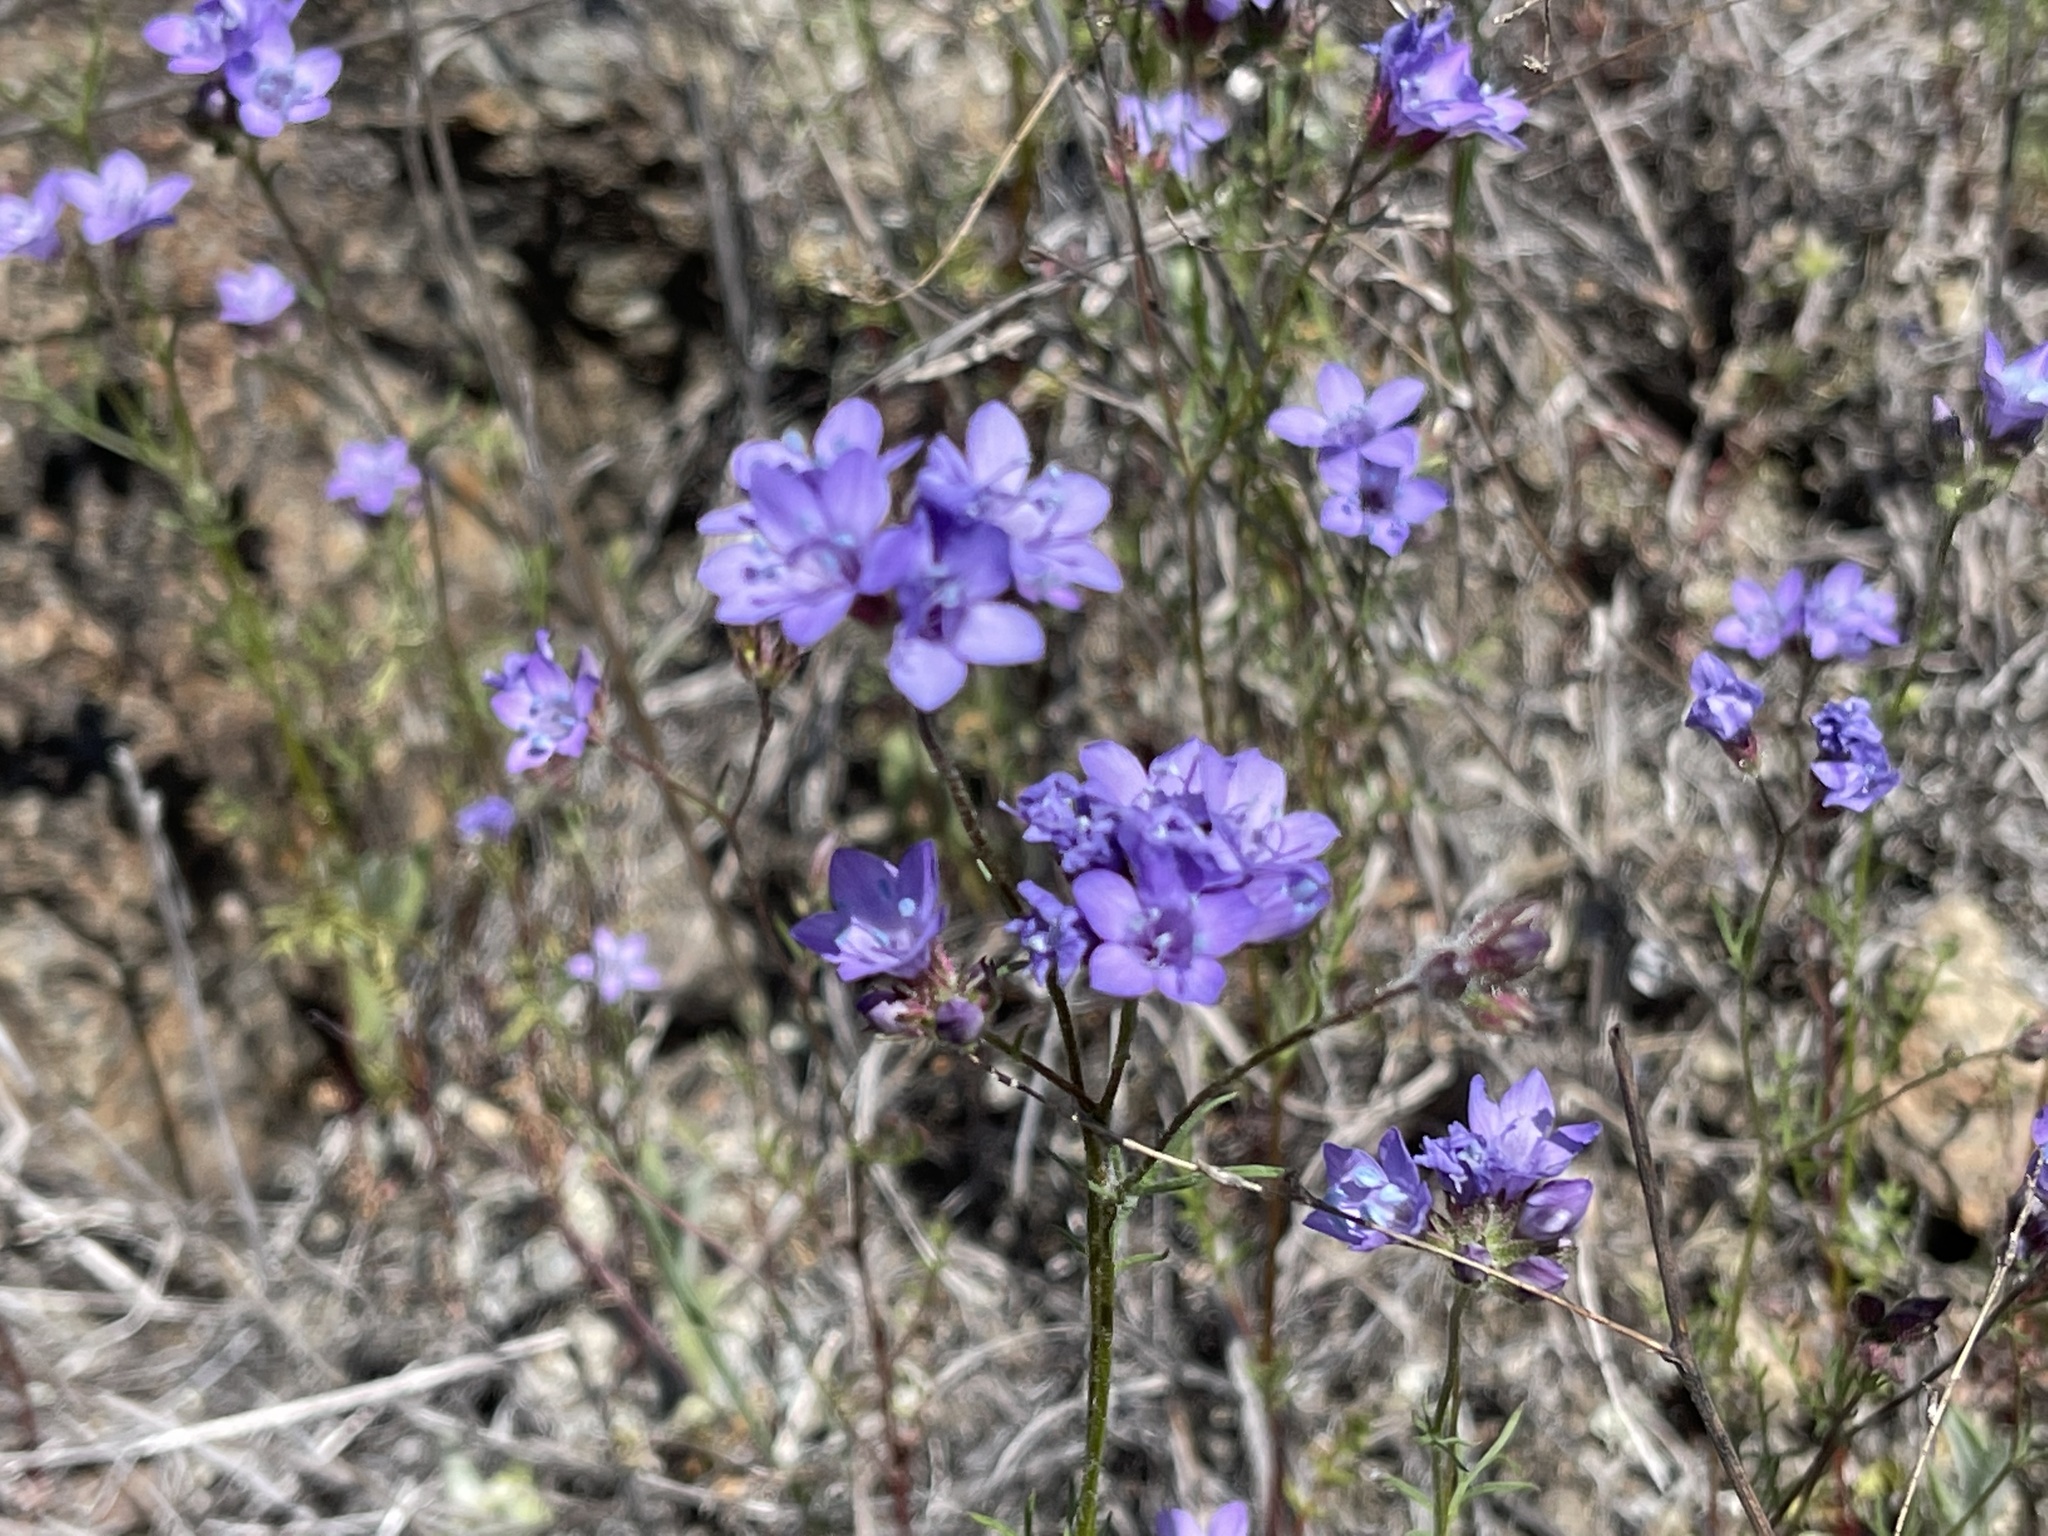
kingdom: Plantae
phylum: Tracheophyta
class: Magnoliopsida
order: Ericales
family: Polemoniaceae
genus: Gilia
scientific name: Gilia achilleifolia
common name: California gily-flower
